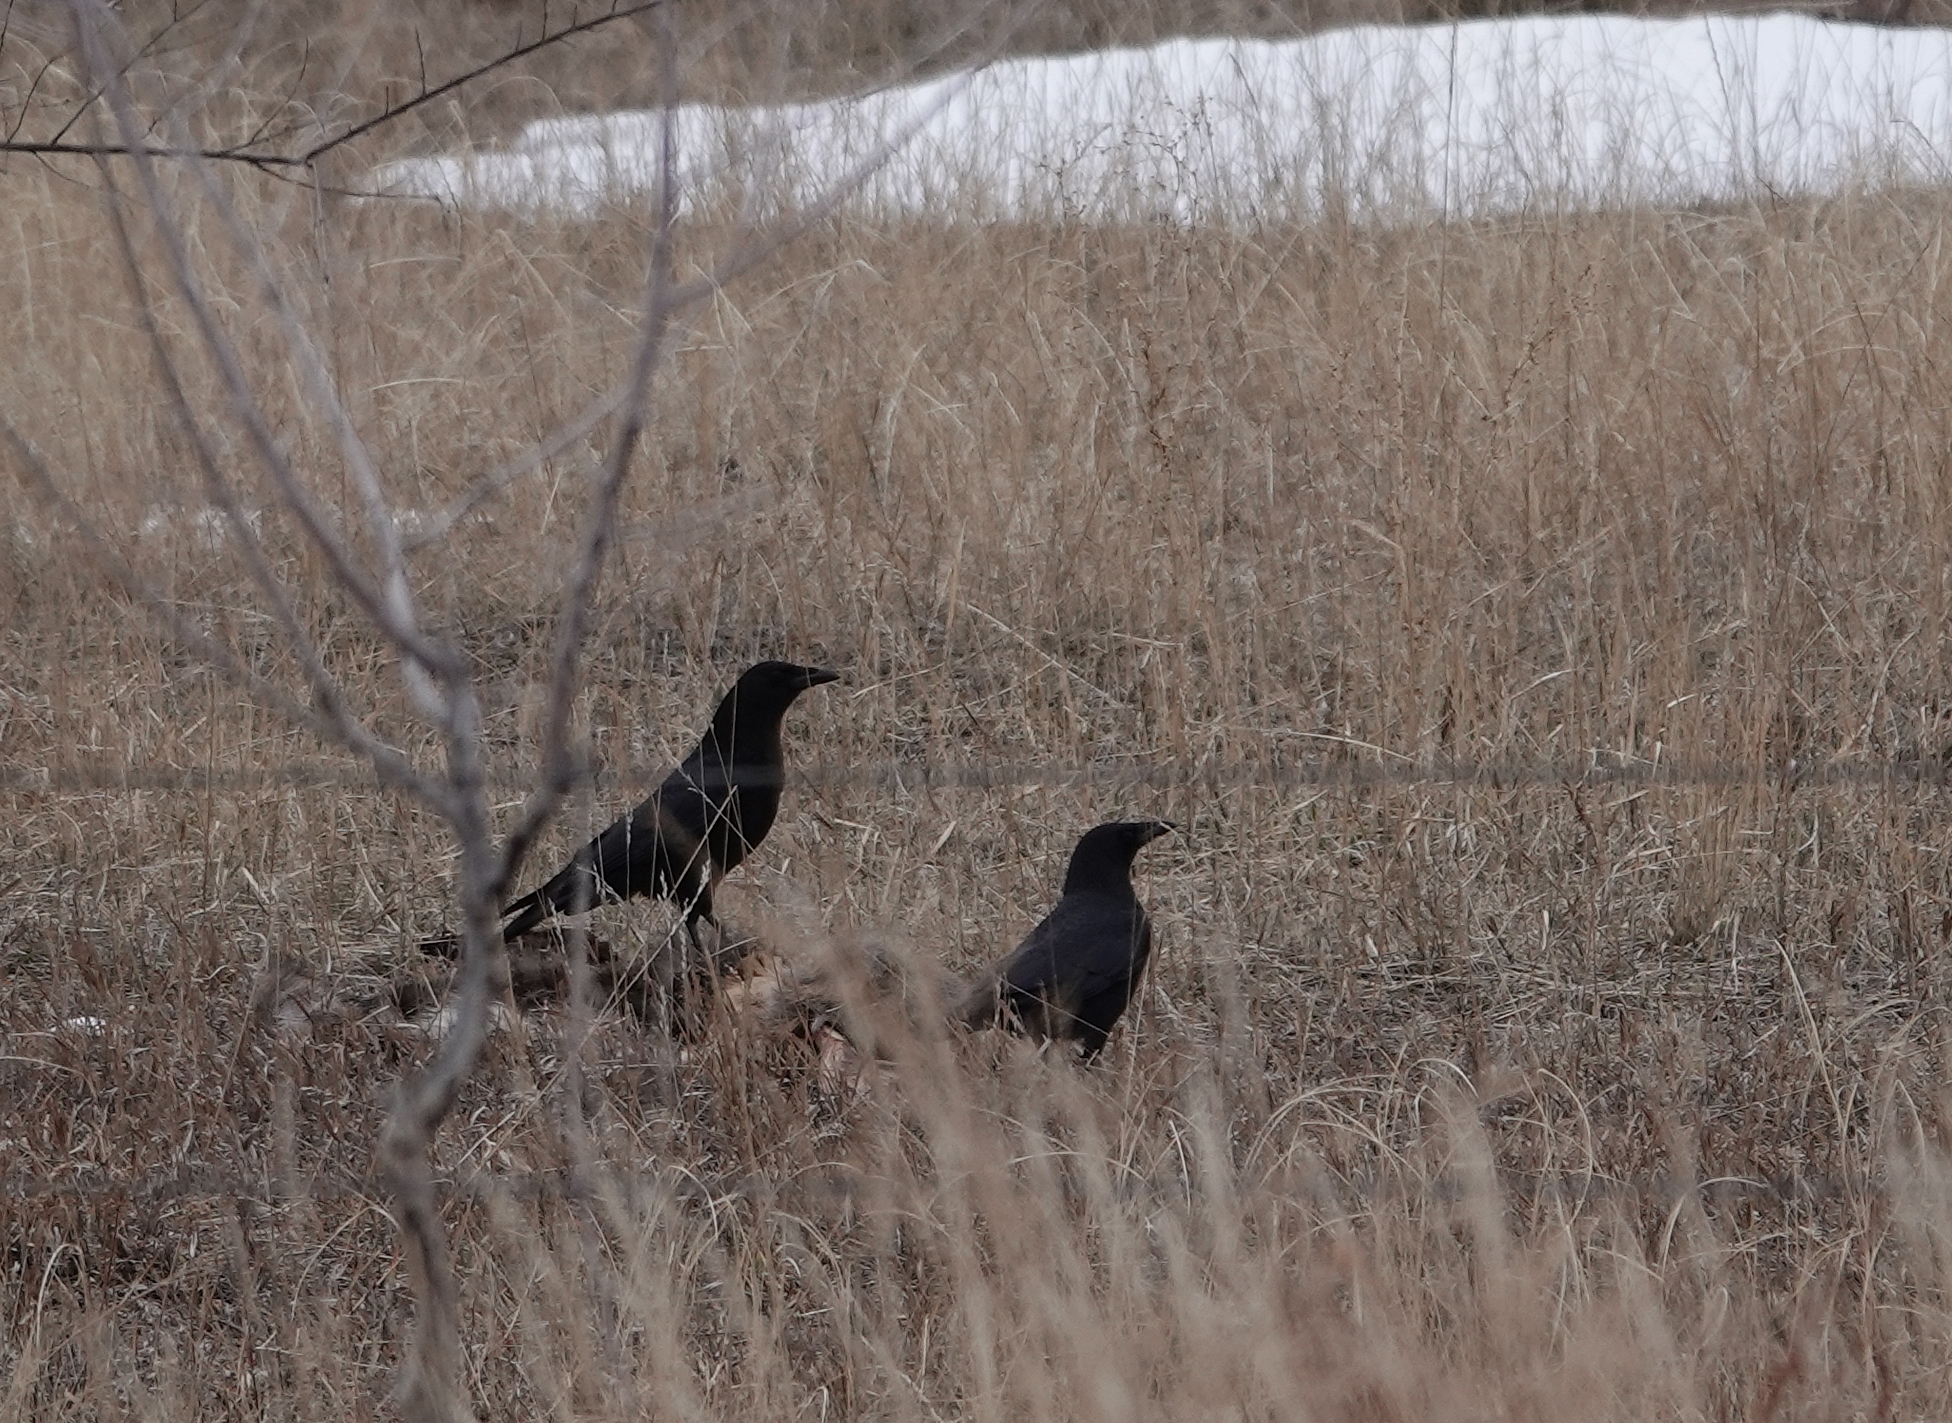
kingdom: Animalia
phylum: Chordata
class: Aves
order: Passeriformes
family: Corvidae
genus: Corvus
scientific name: Corvus brachyrhynchos
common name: American crow
